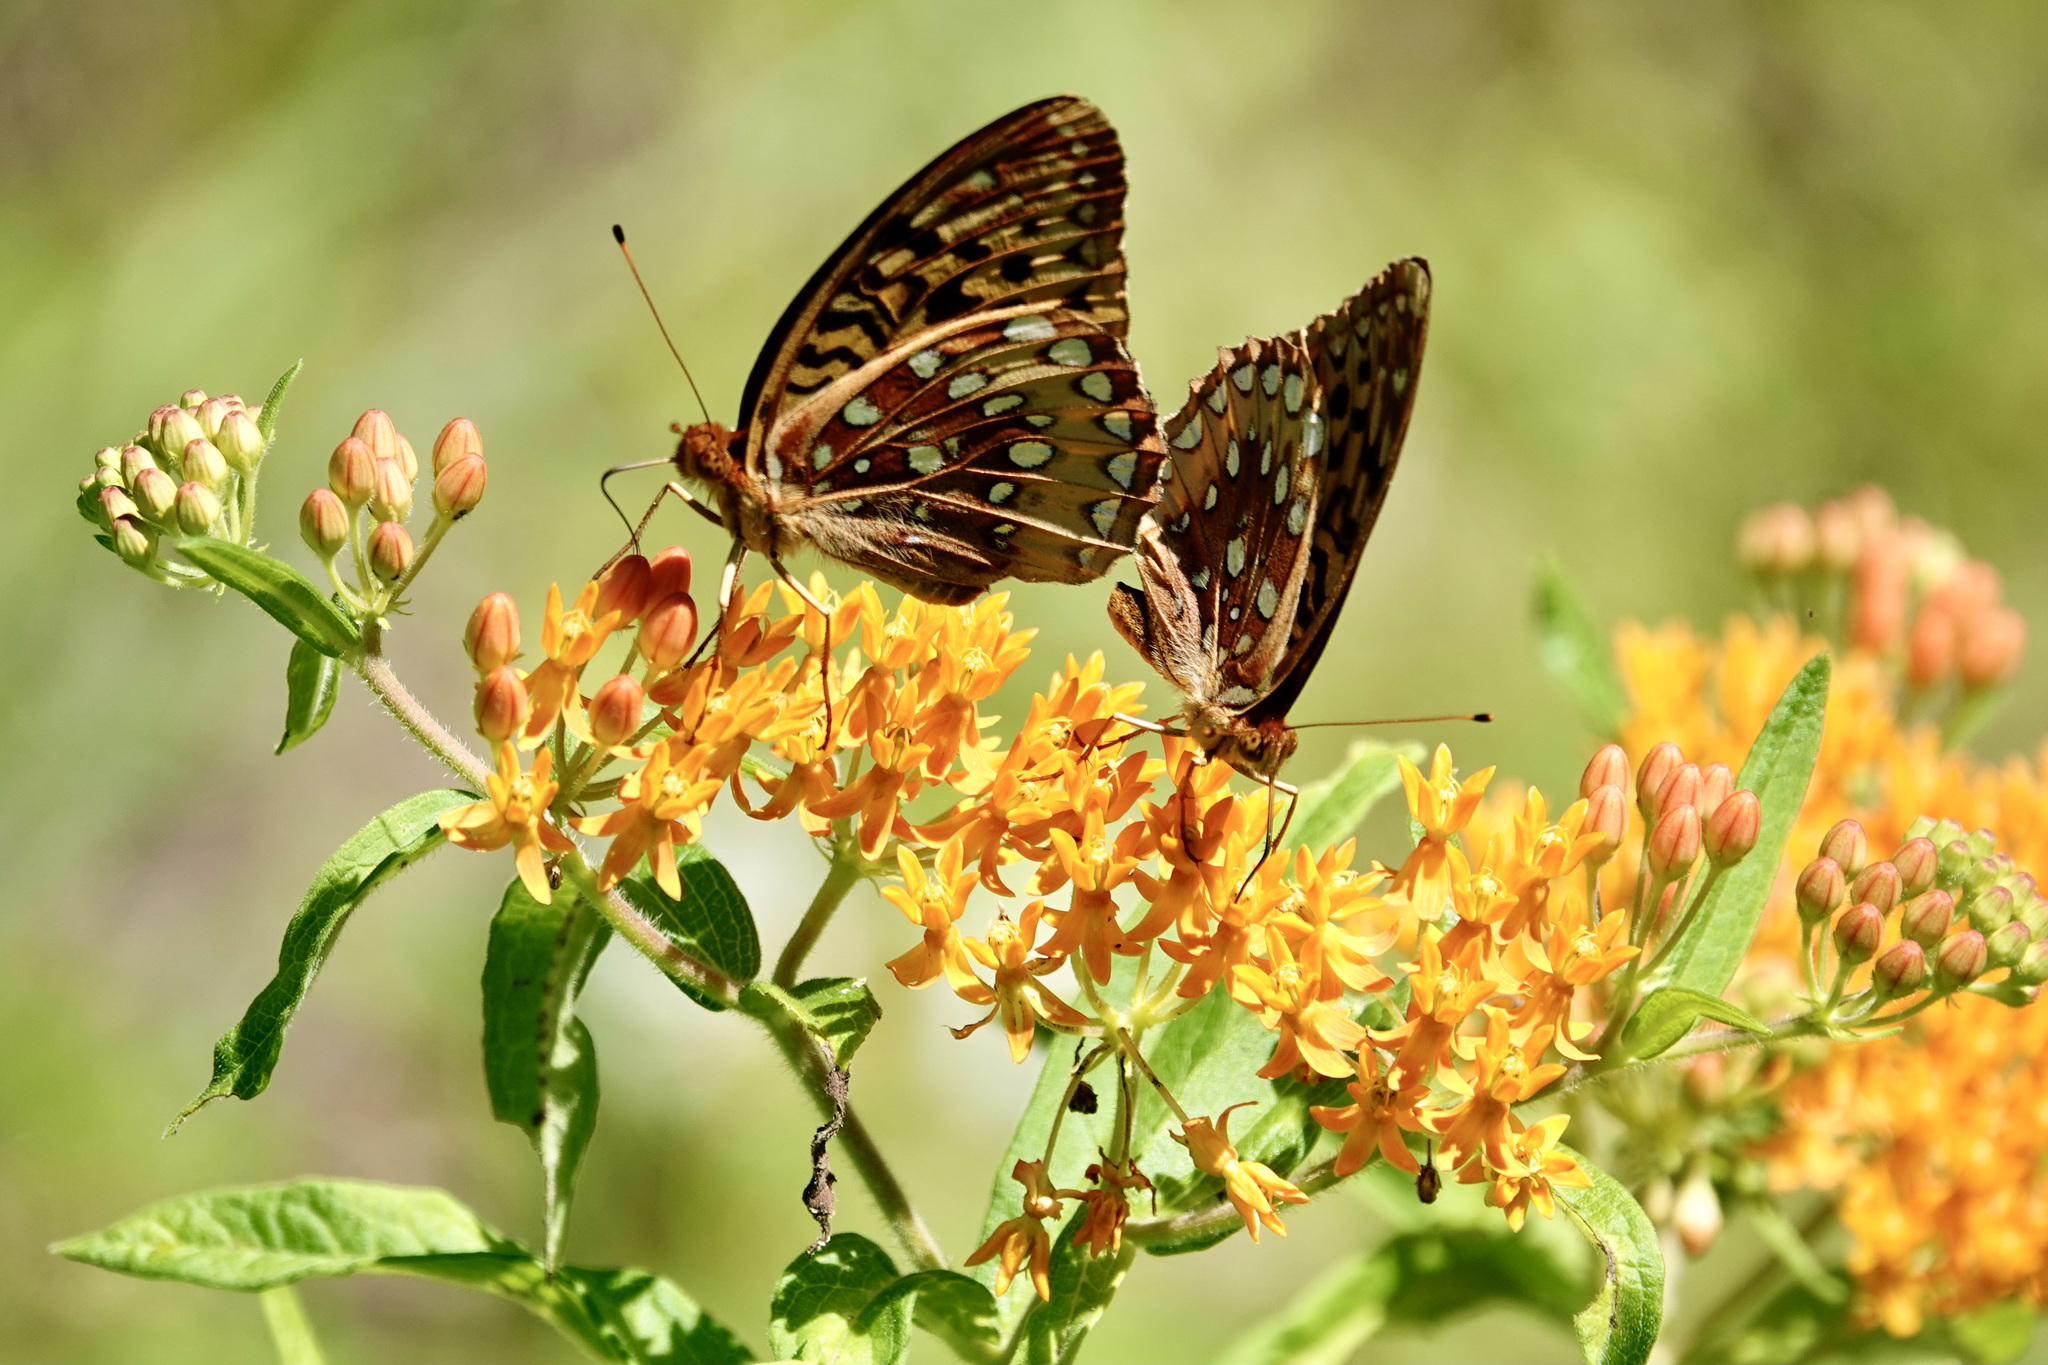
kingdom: Animalia
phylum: Arthropoda
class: Insecta
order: Lepidoptera
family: Nymphalidae
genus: Speyeria
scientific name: Speyeria cybele
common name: Great spangled fritillary
